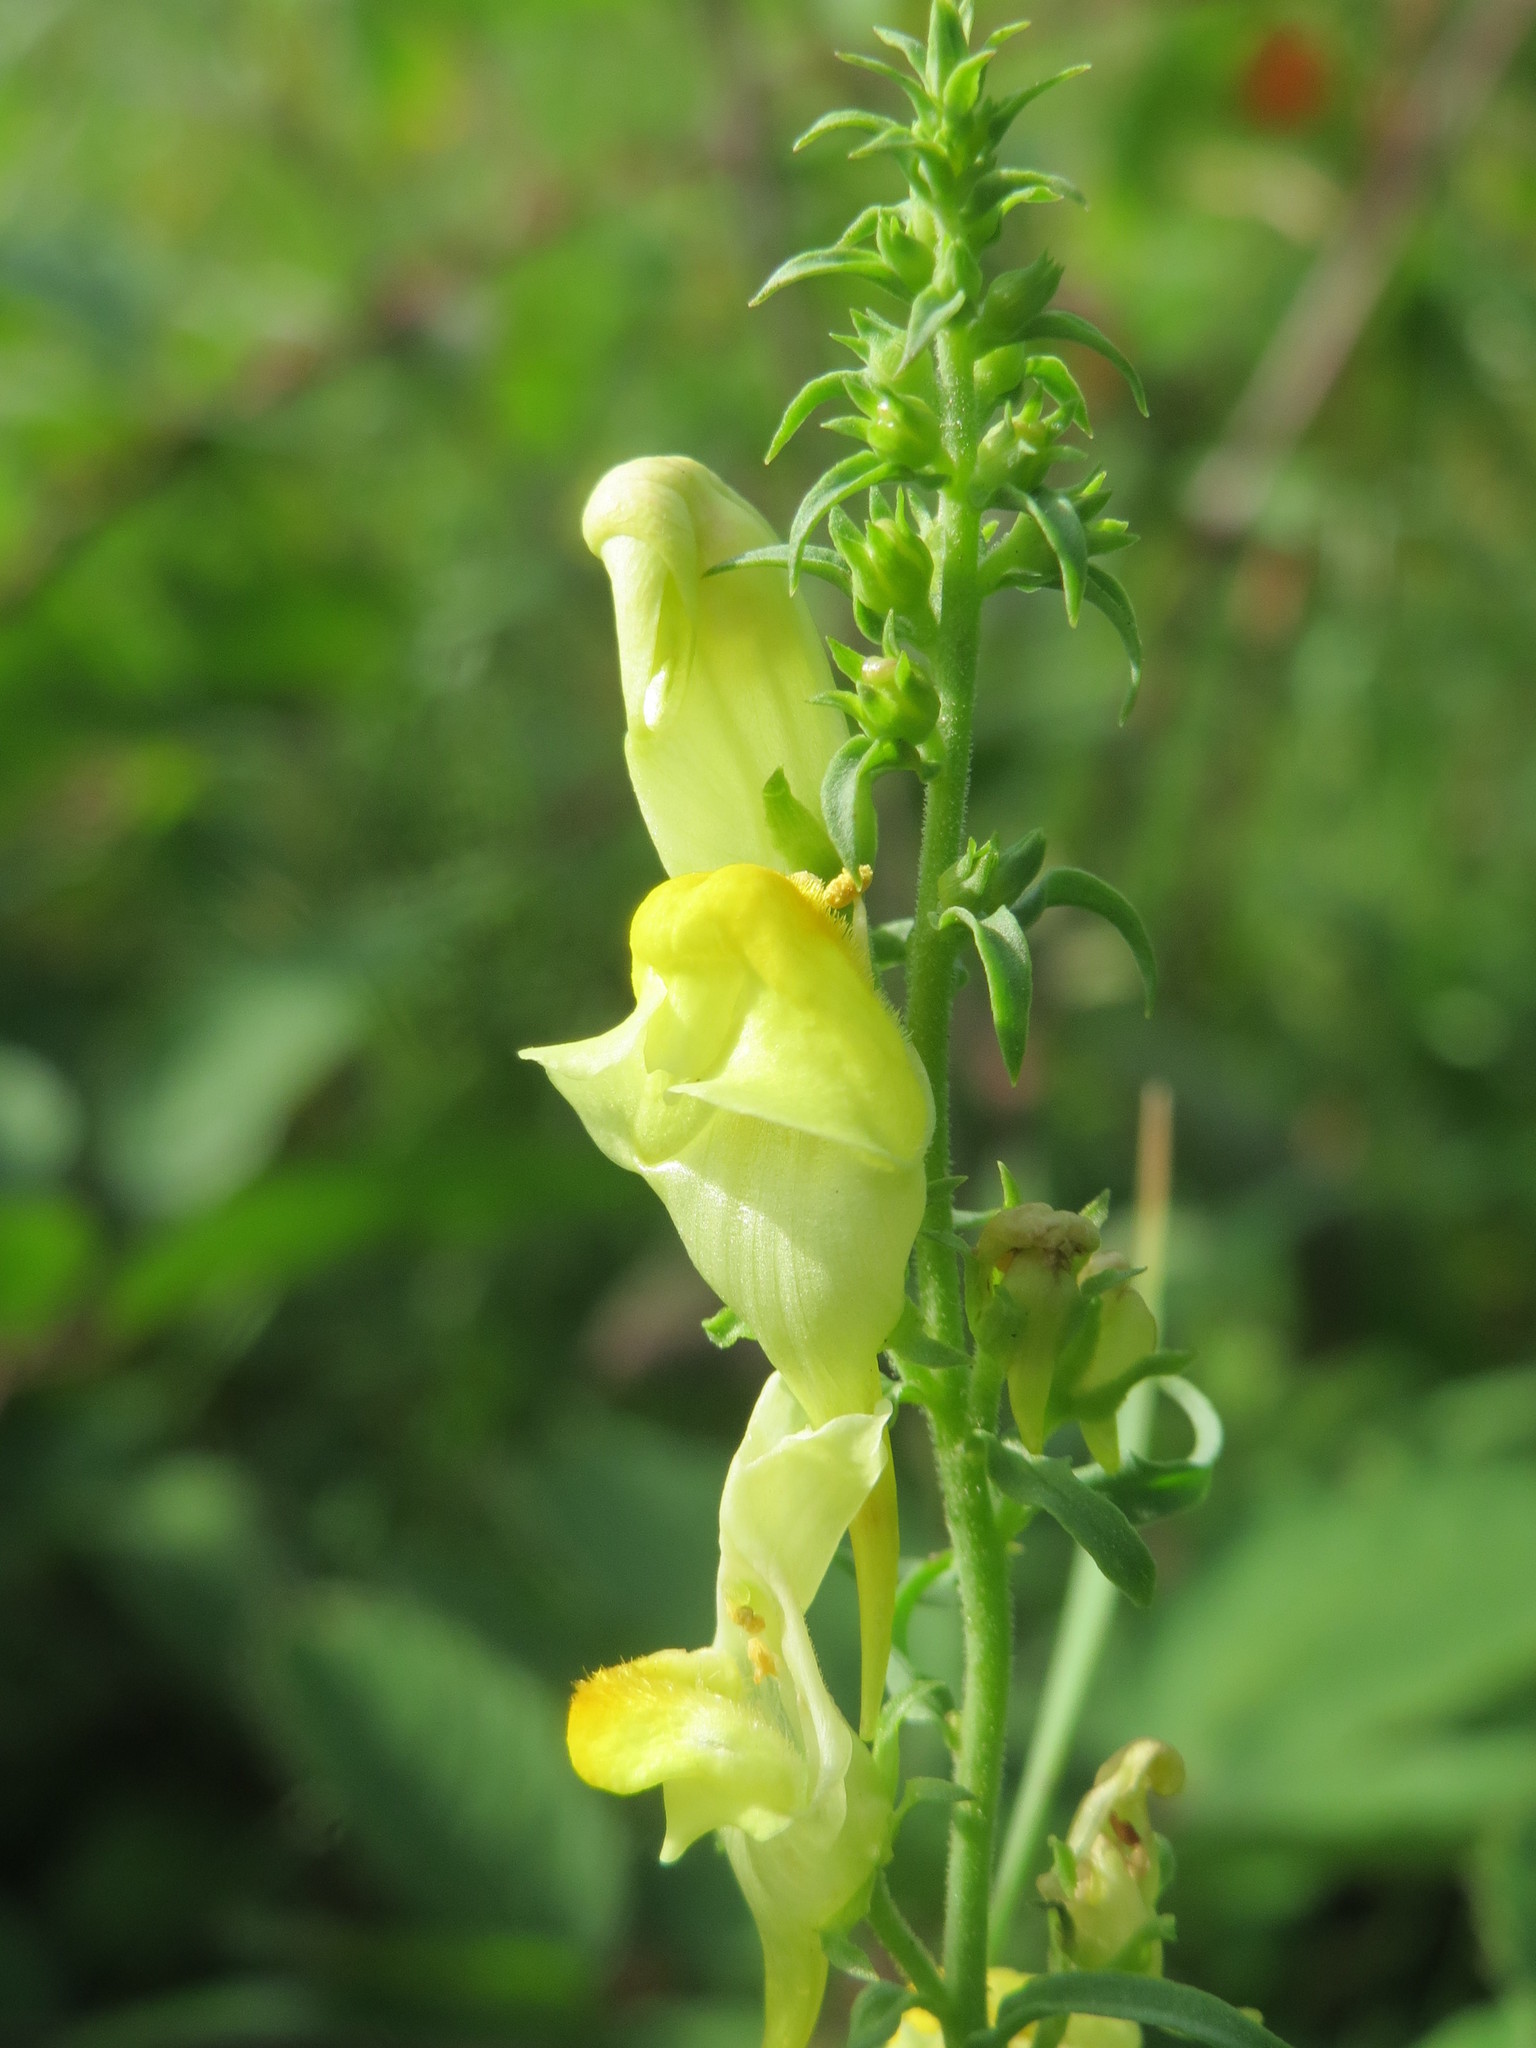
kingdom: Plantae
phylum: Tracheophyta
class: Magnoliopsida
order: Lamiales
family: Plantaginaceae
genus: Linaria
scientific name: Linaria vulgaris
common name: Butter and eggs
